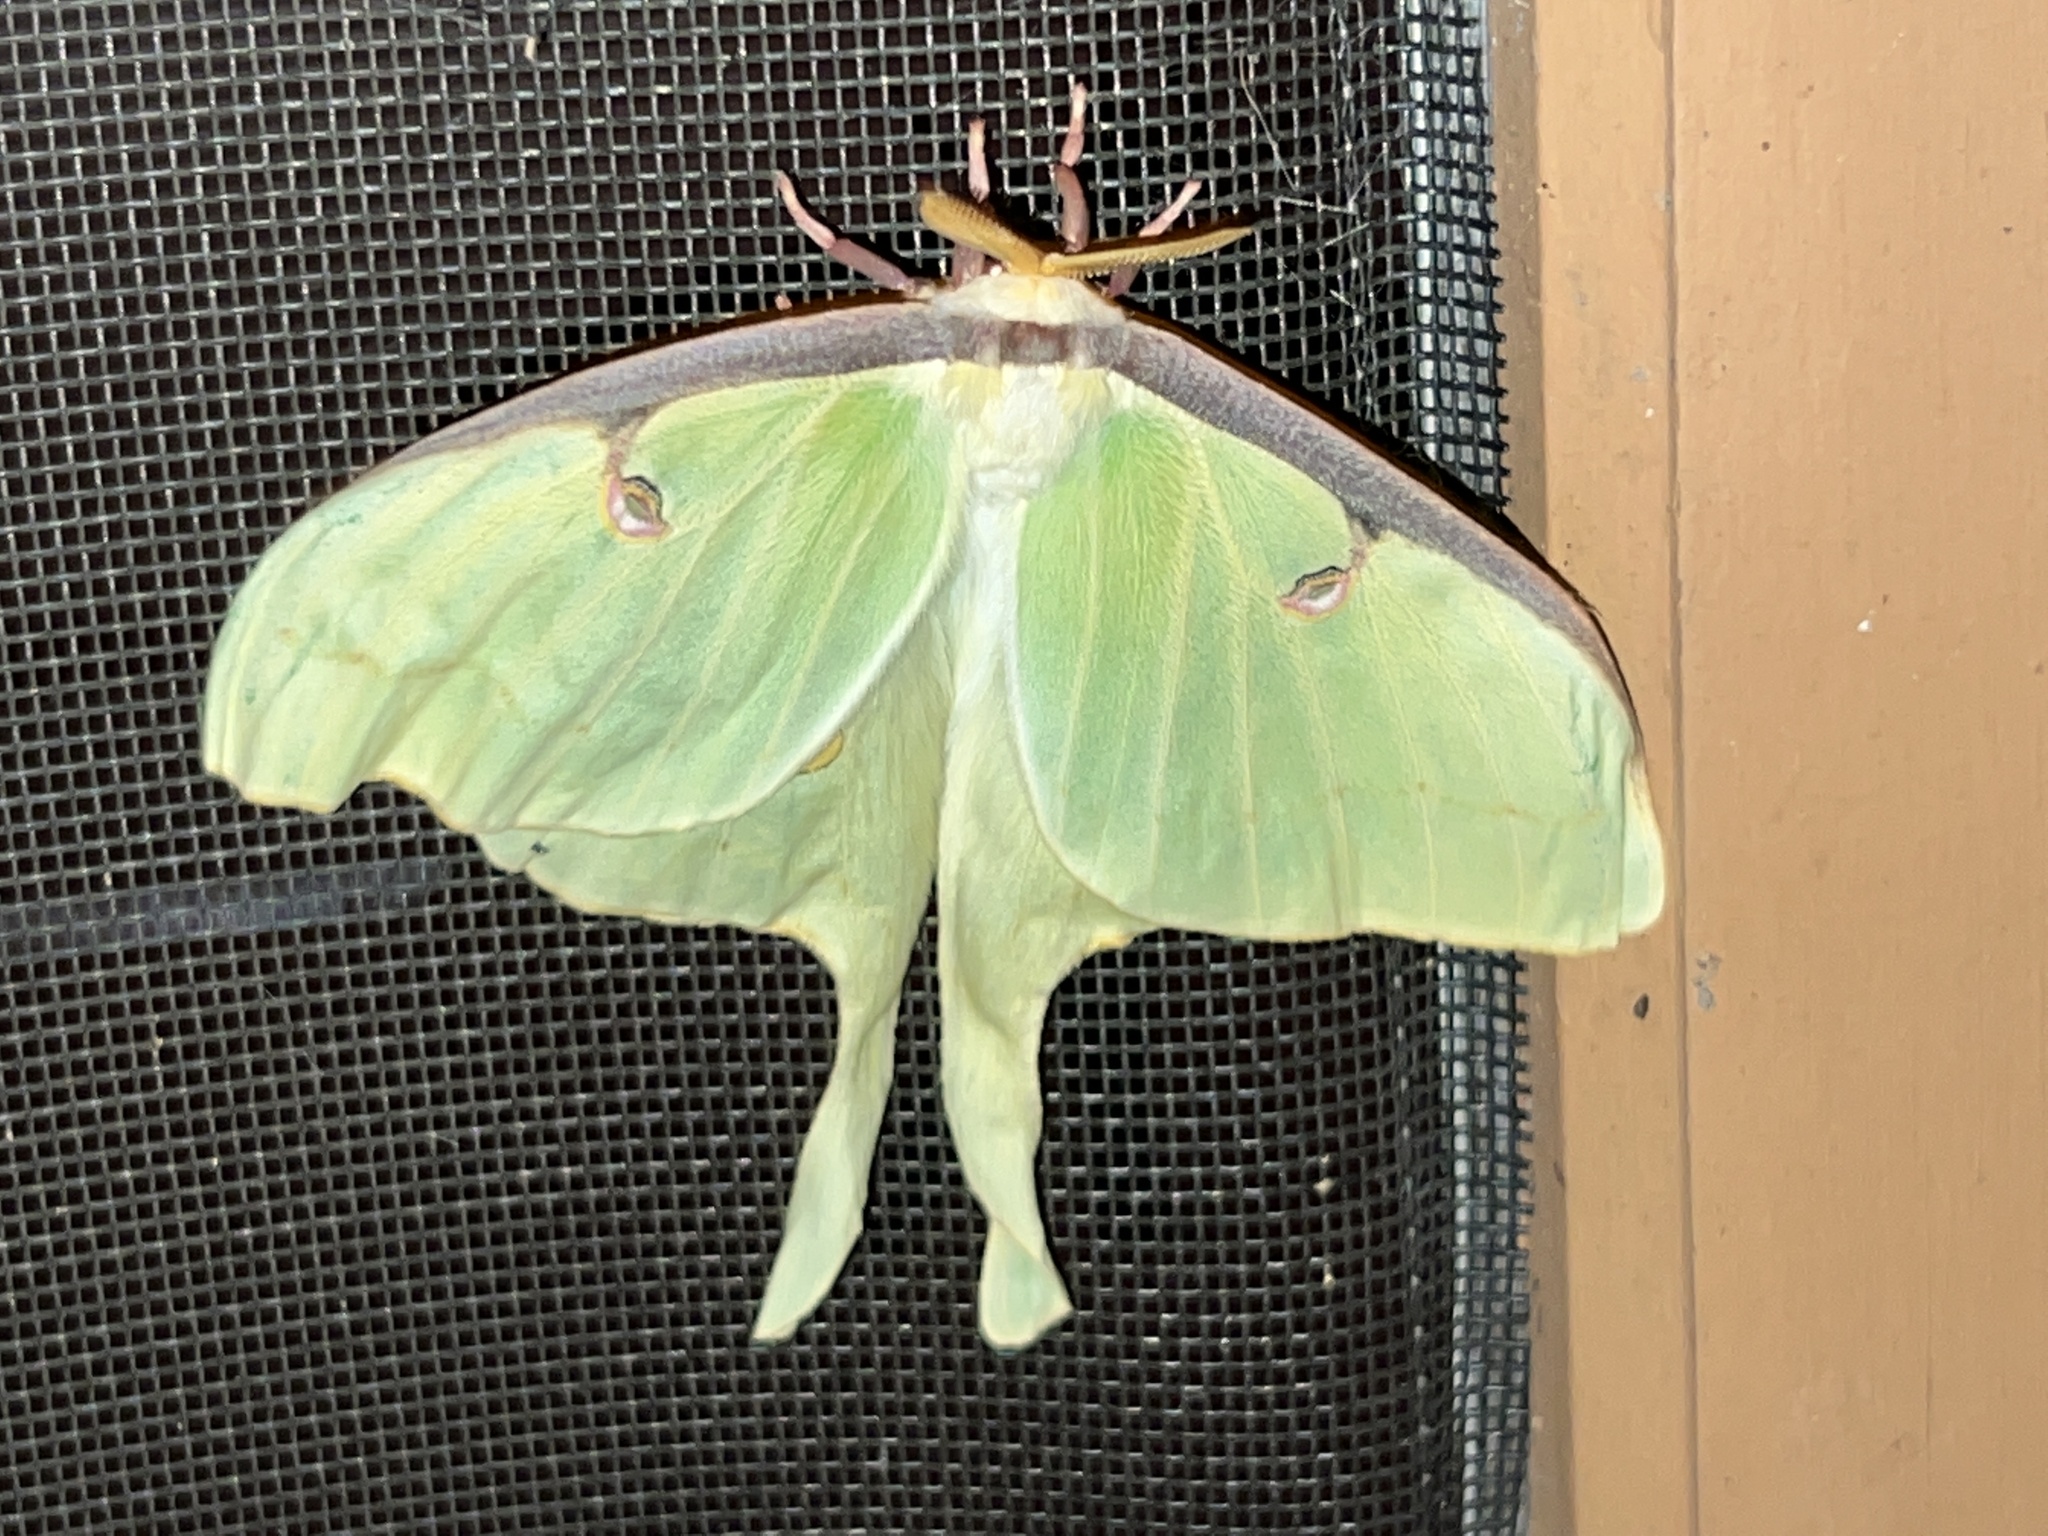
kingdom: Animalia
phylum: Arthropoda
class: Insecta
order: Lepidoptera
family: Saturniidae
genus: Actias
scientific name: Actias luna
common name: Luna moth
